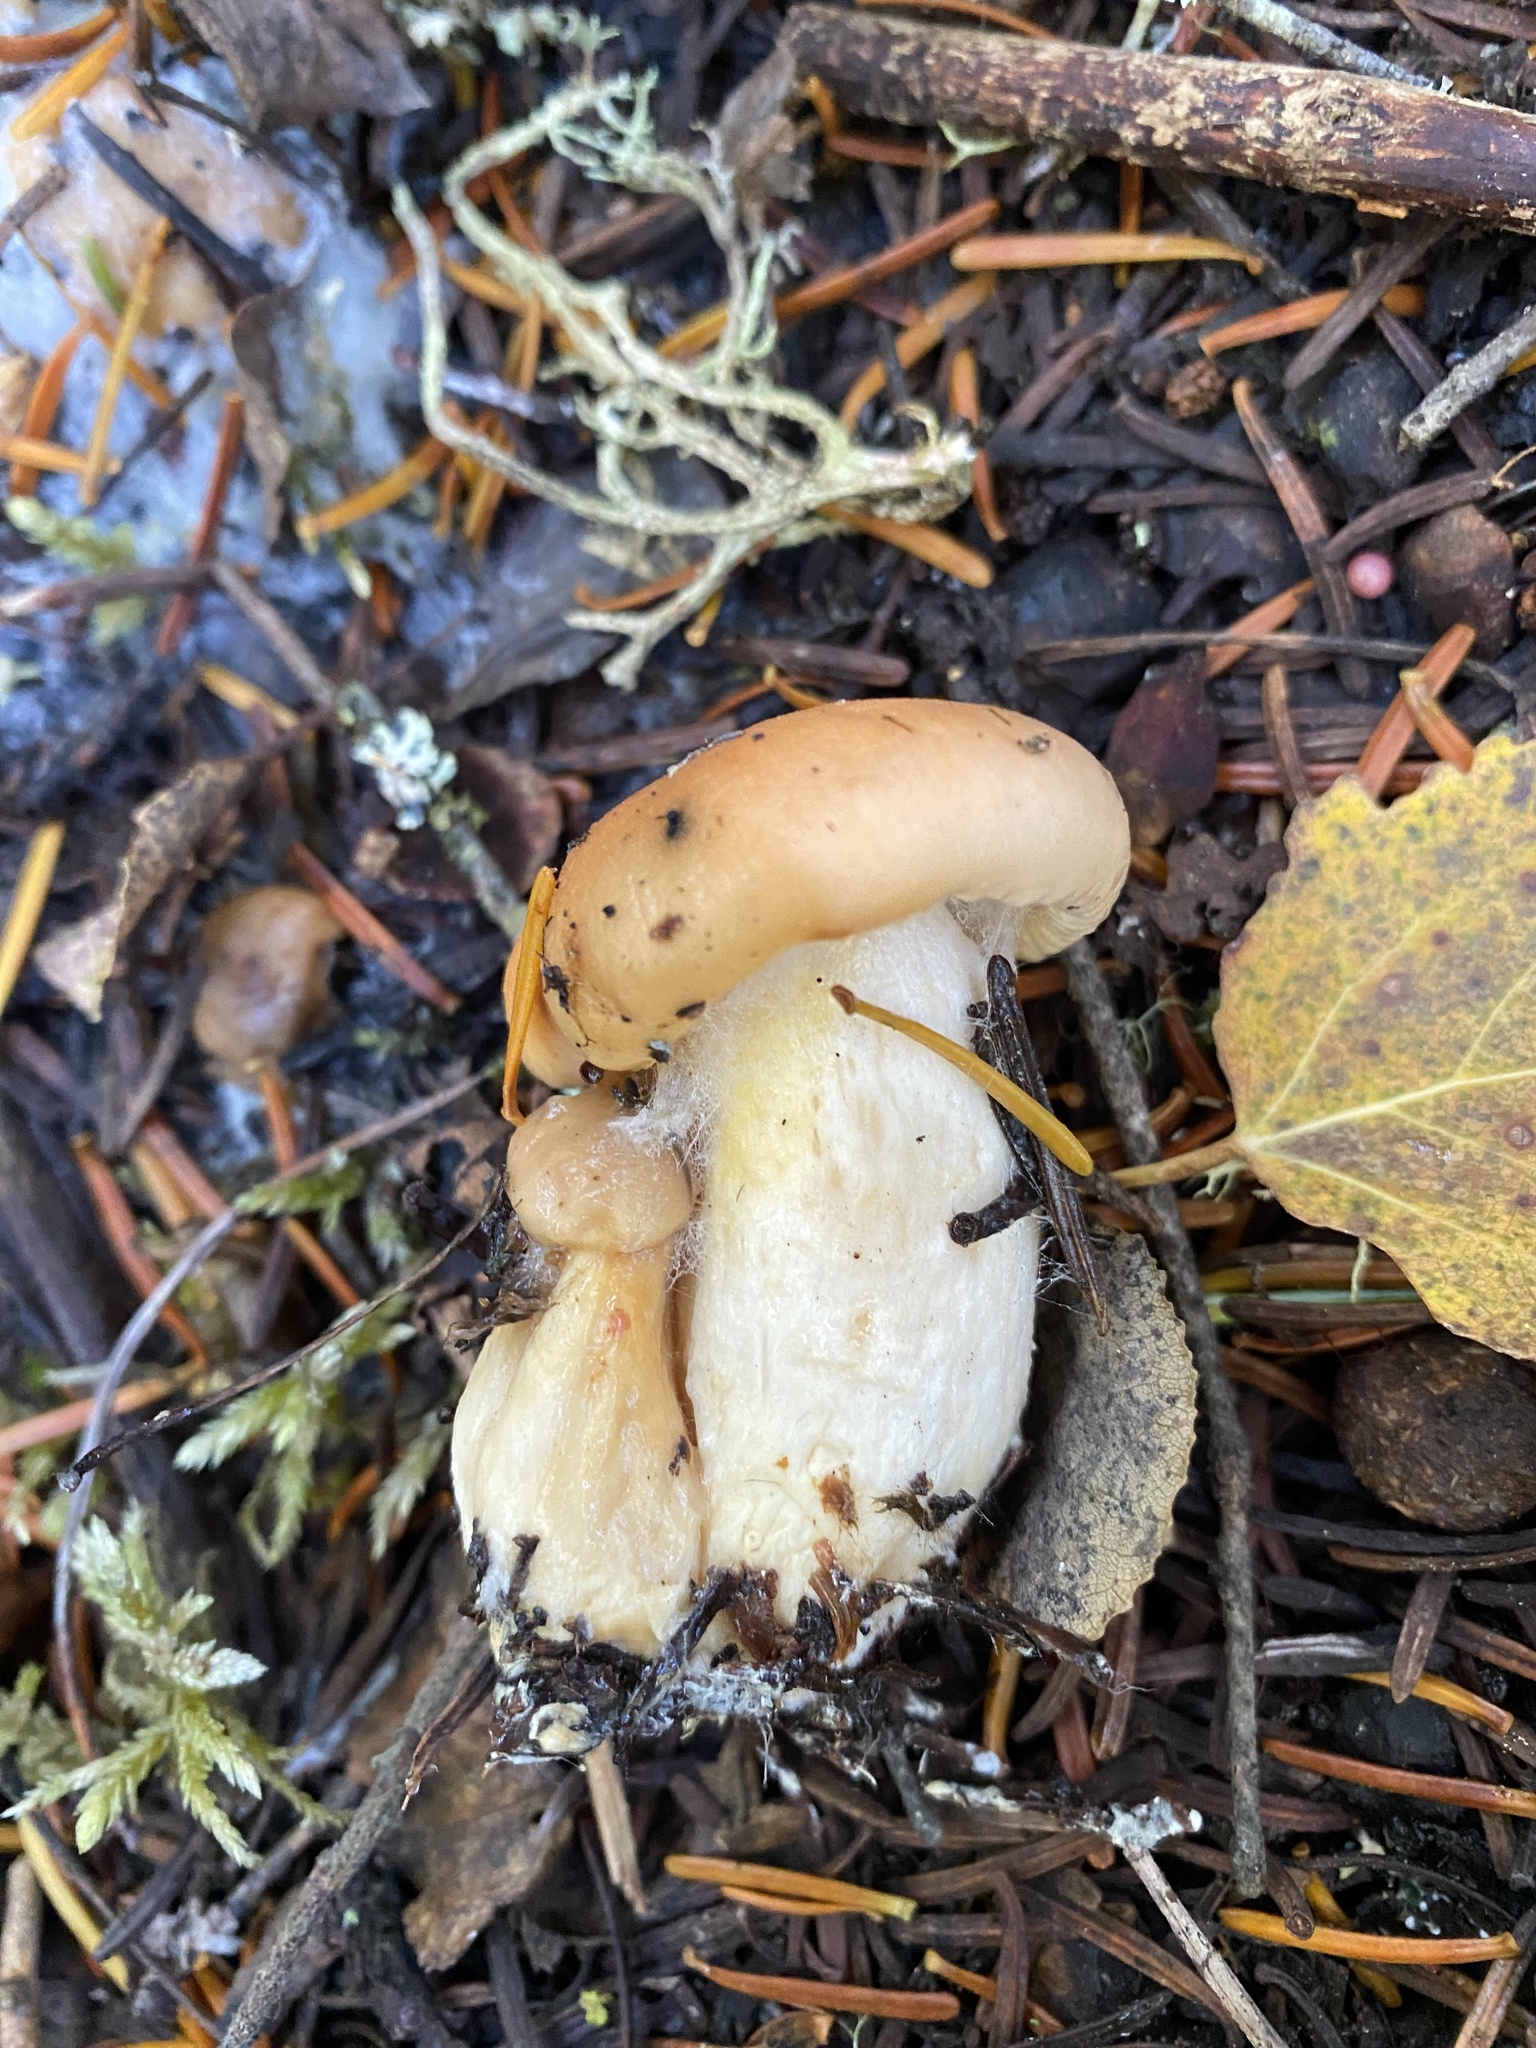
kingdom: Fungi
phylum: Basidiomycota
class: Agaricomycetes
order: Agaricales
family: Hygrophoraceae
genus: Cuphophyllus
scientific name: Cuphophyllus pratensis
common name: Meadow waxcap
